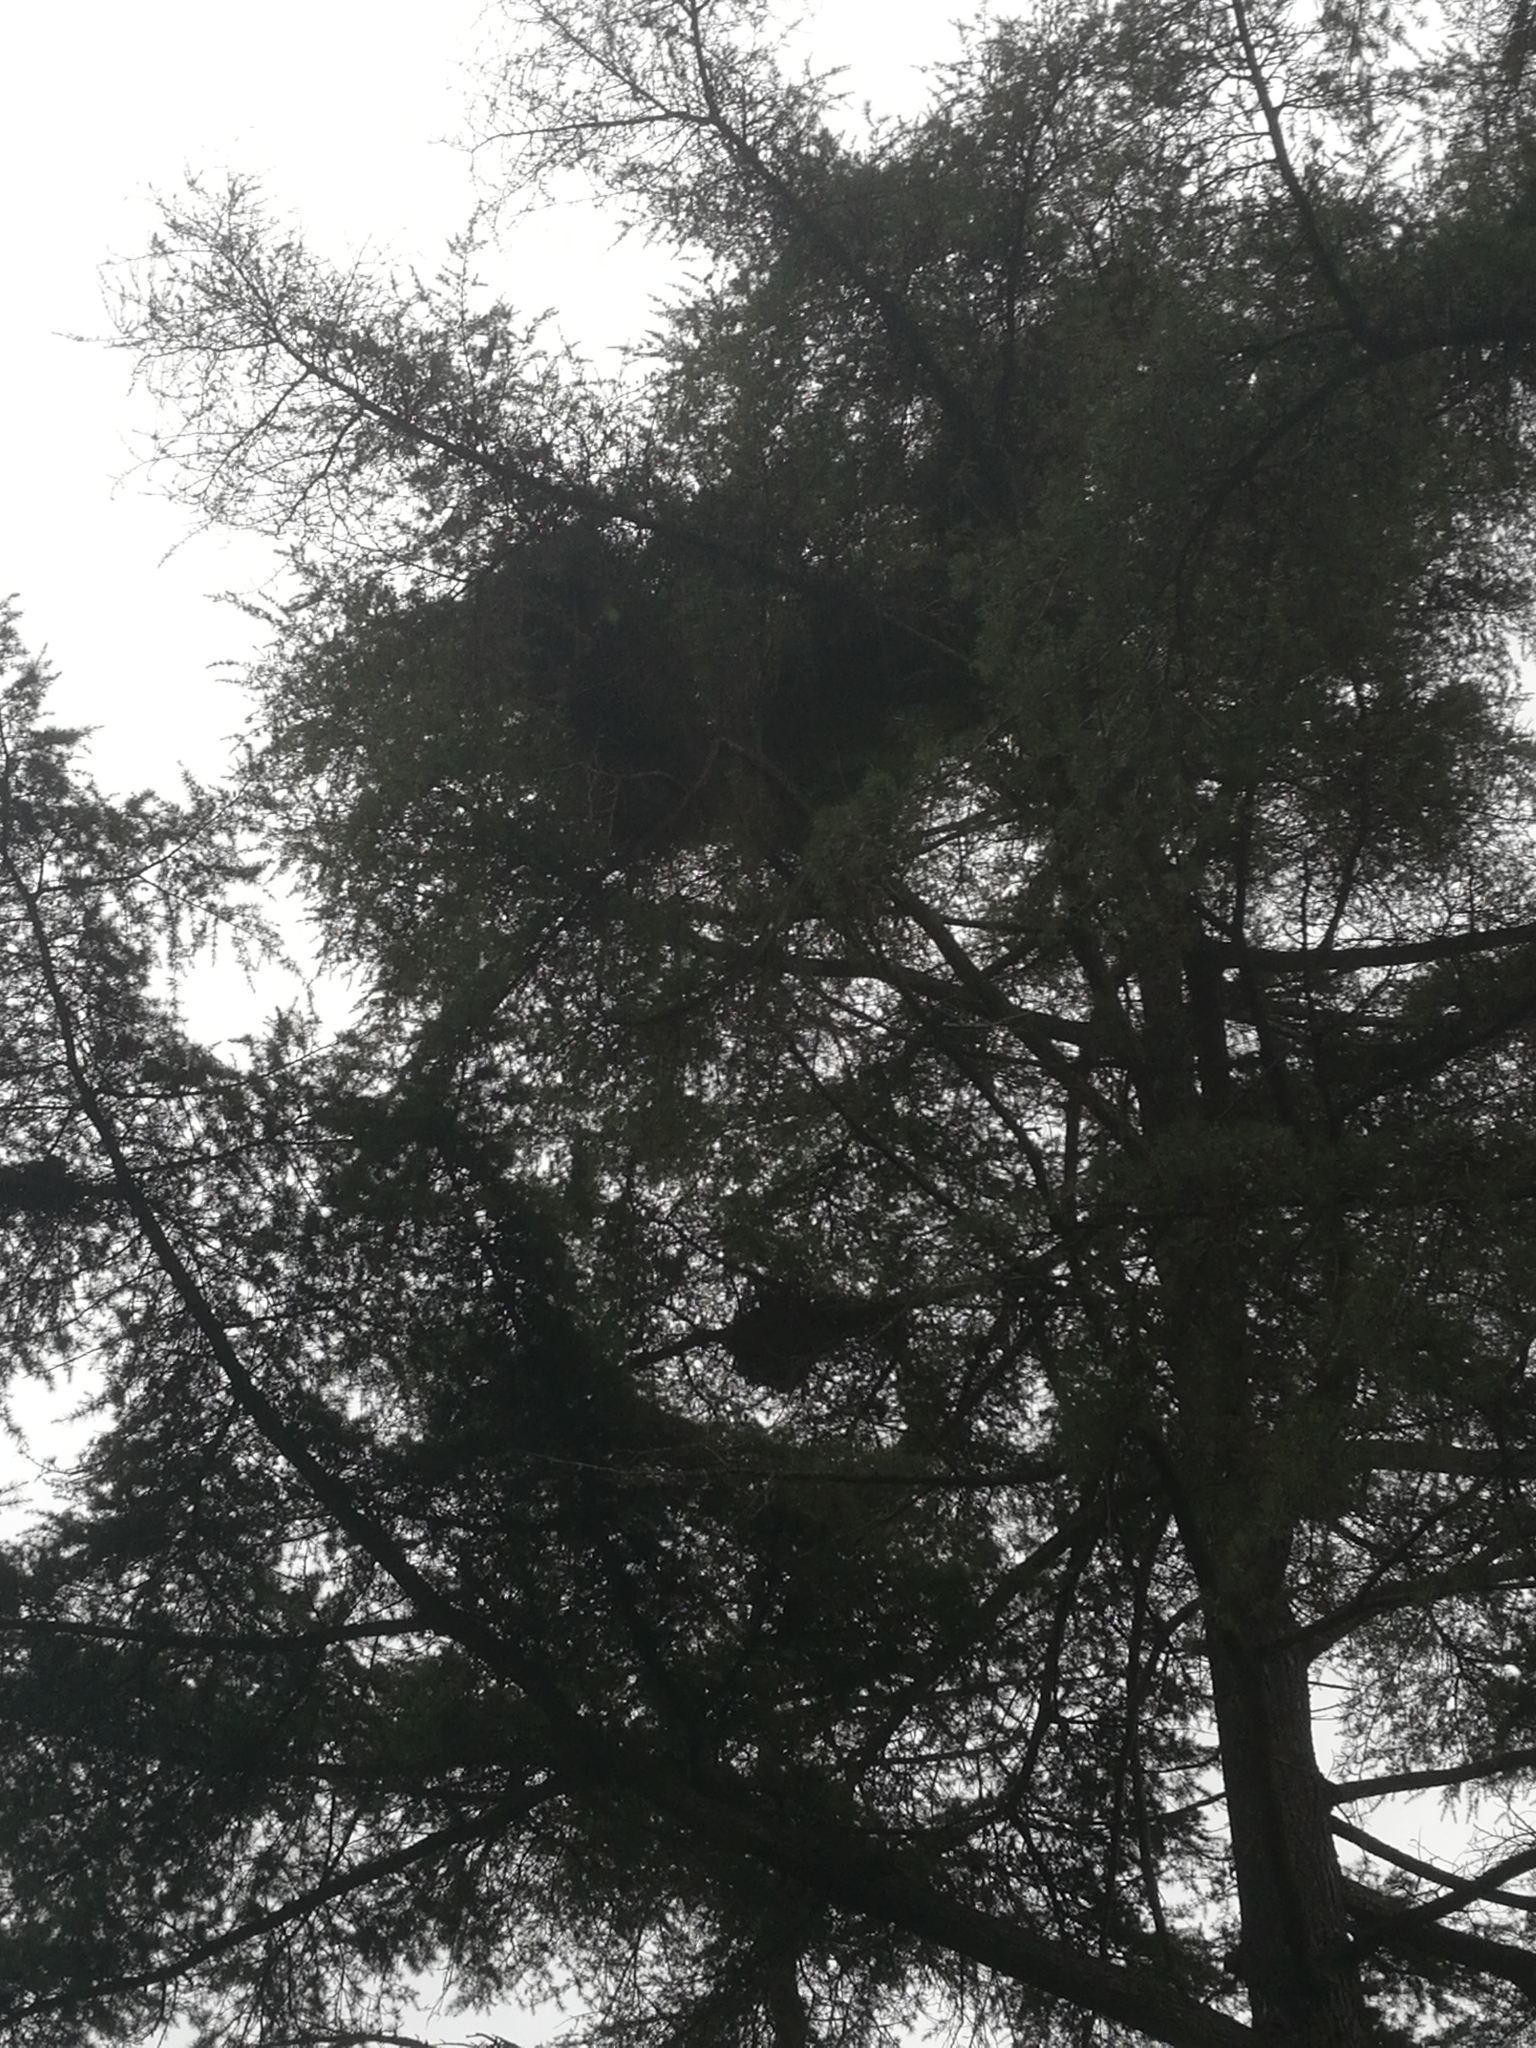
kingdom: Animalia
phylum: Chordata
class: Aves
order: Psittaciformes
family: Psittacidae
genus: Myiopsitta
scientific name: Myiopsitta monachus
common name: Monk parakeet
